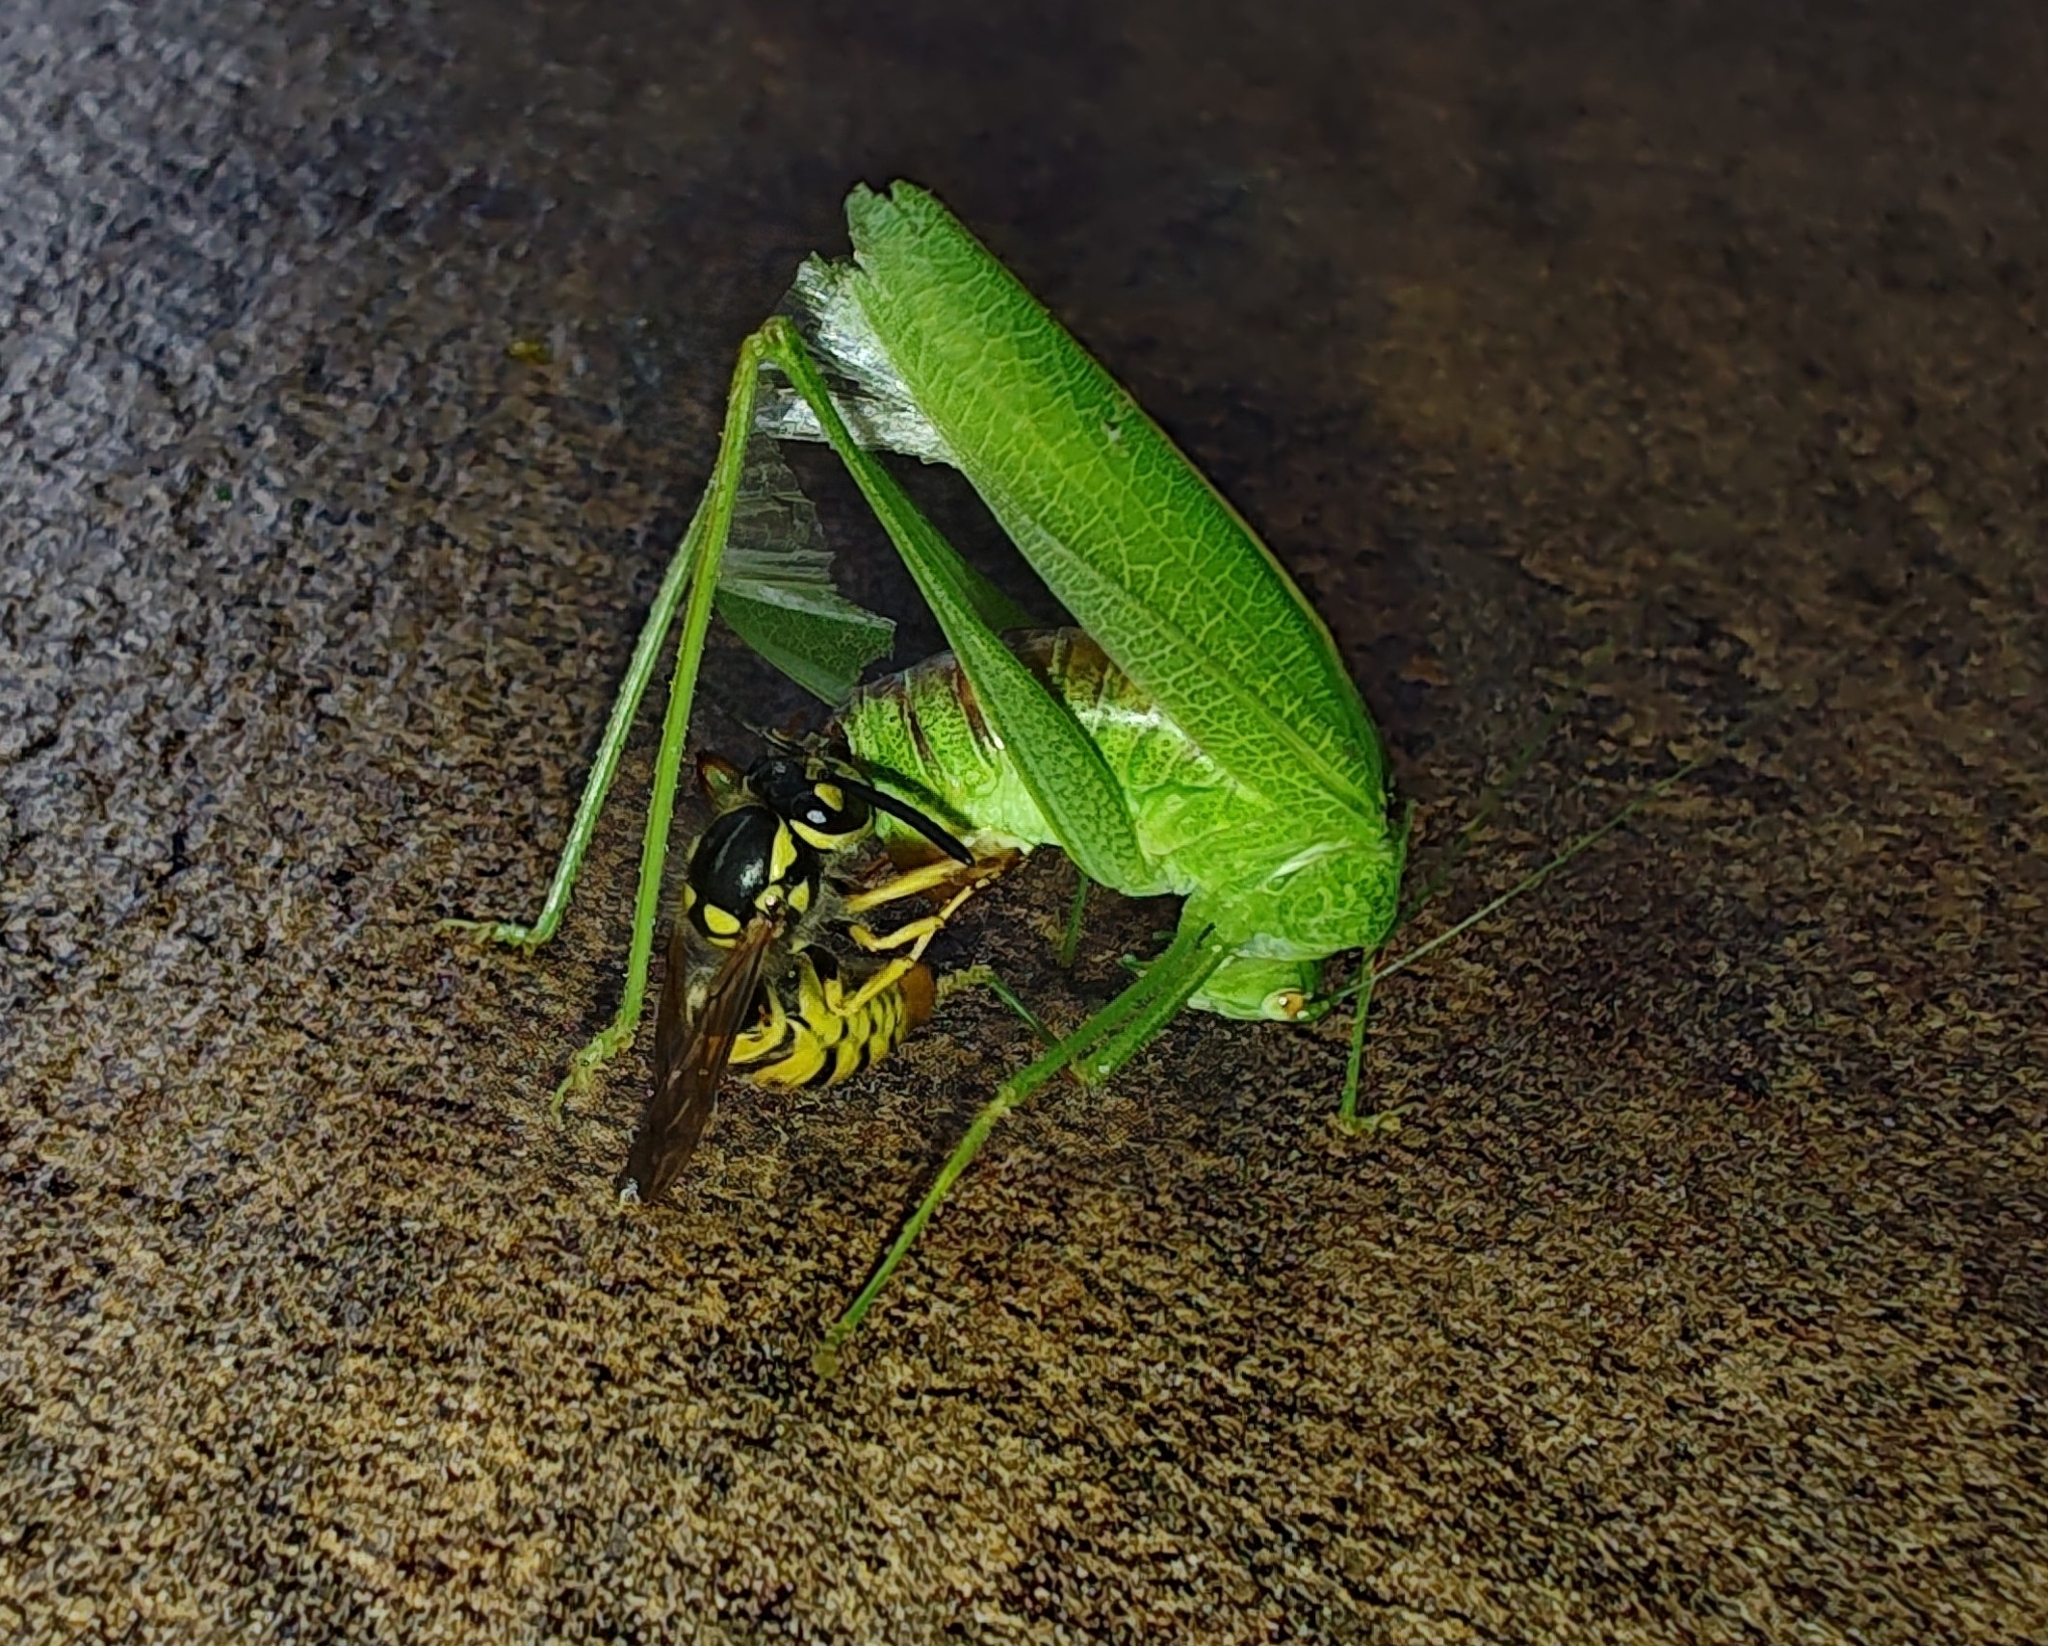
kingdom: Animalia
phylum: Arthropoda
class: Insecta
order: Orthoptera
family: Tettigoniidae
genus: Phaneroptera
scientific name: Phaneroptera nana
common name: Southern sickle bush-cricket
